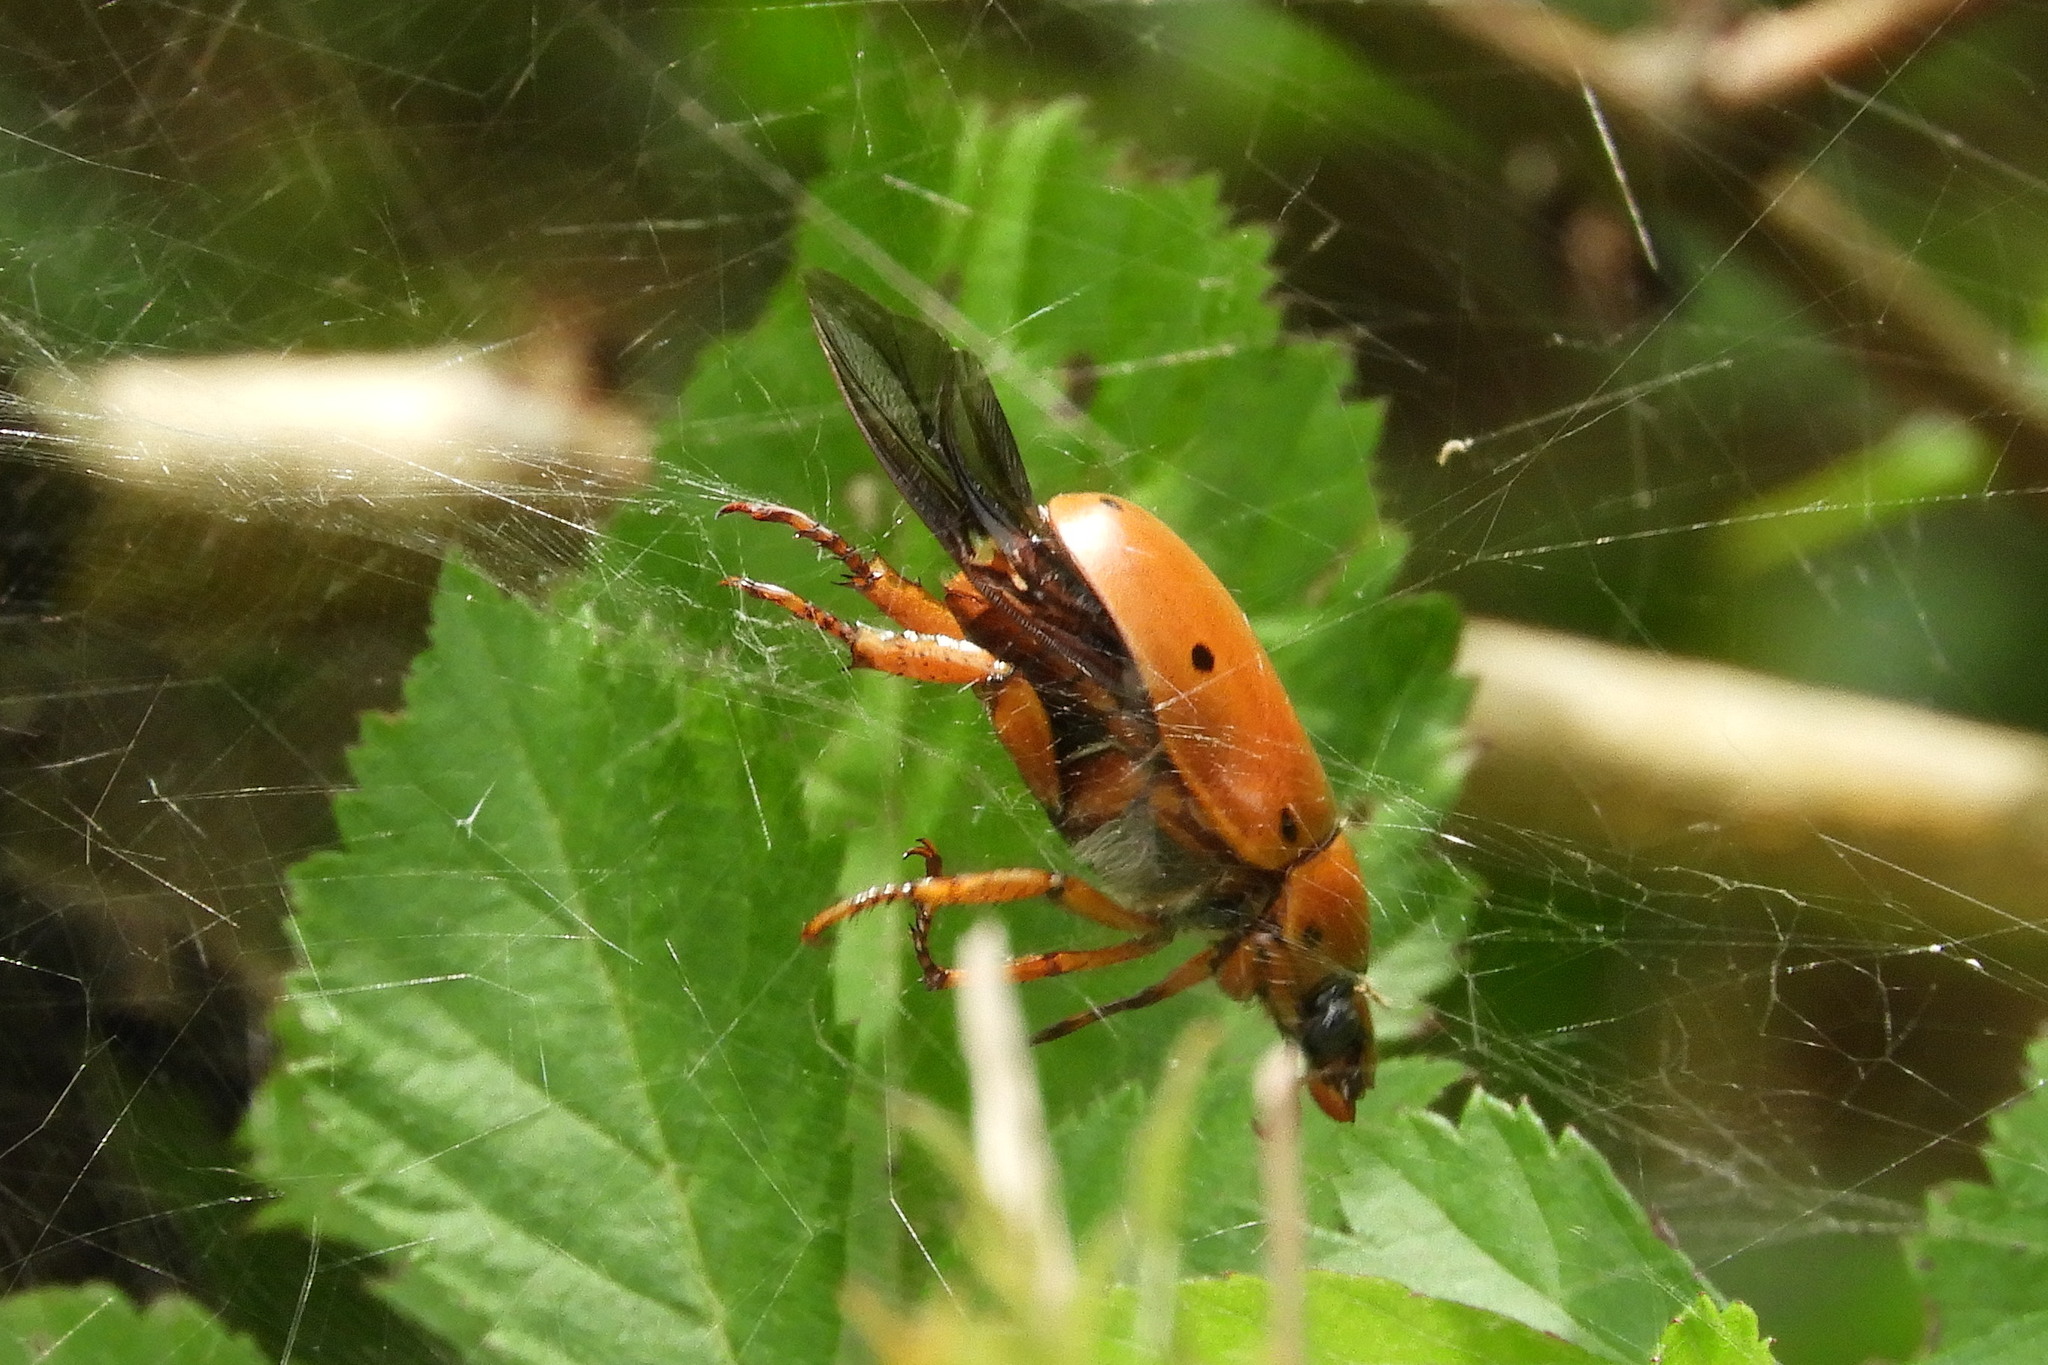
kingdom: Animalia
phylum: Arthropoda
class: Insecta
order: Coleoptera
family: Scarabaeidae
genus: Pelidnota
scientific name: Pelidnota punctata
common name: Grapevine beetle
